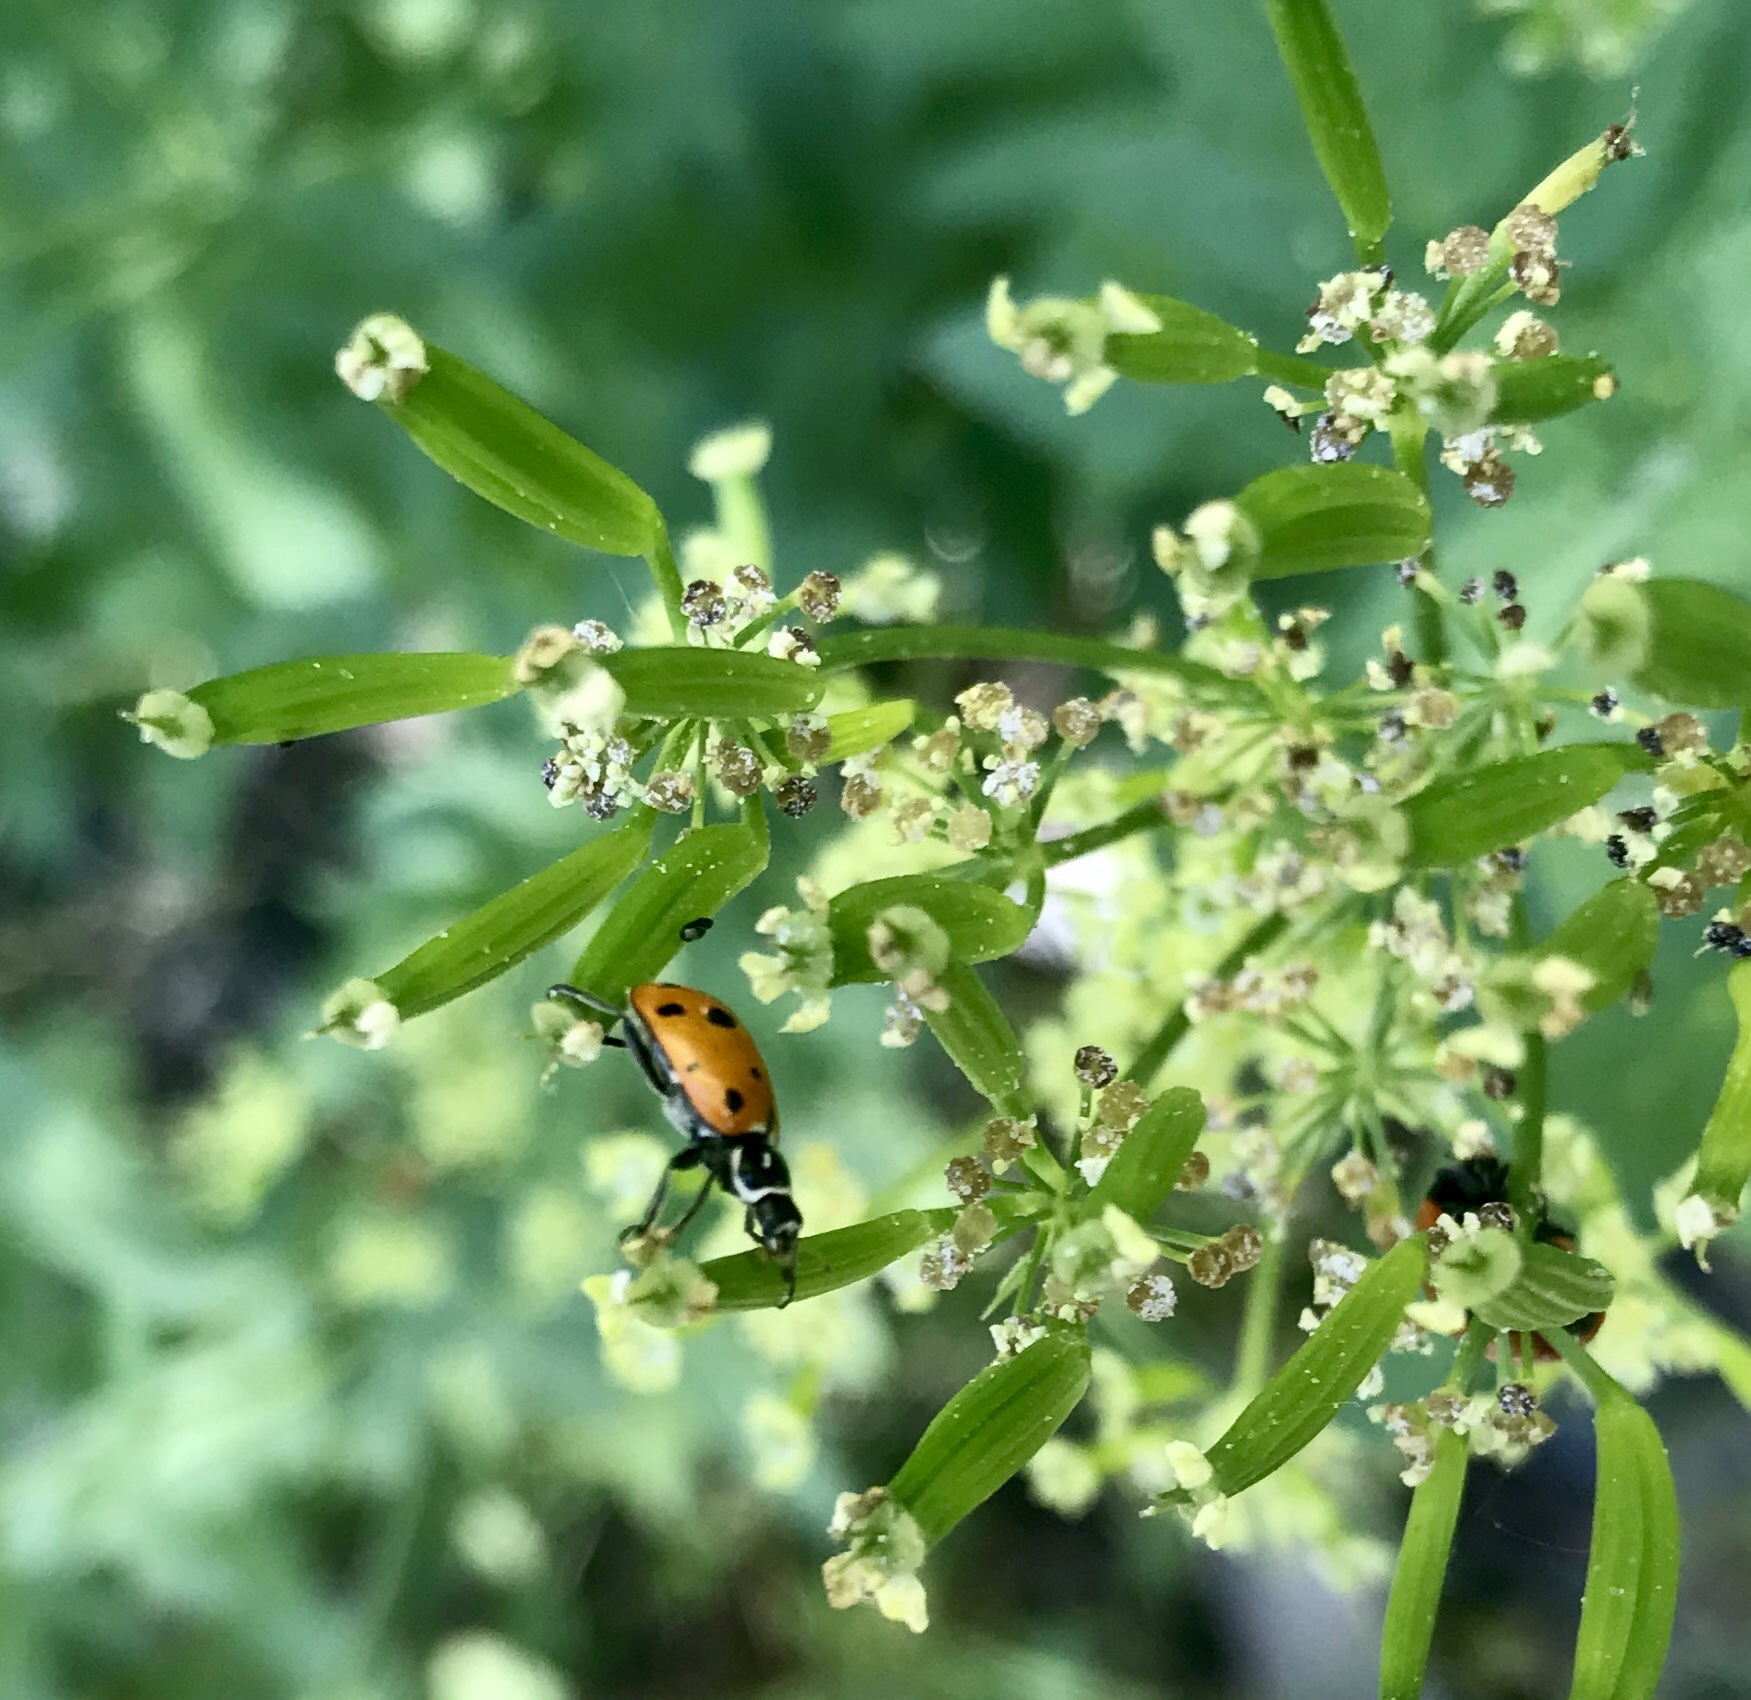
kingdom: Animalia
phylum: Arthropoda
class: Insecta
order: Coleoptera
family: Coccinellidae
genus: Hippodamia
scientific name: Hippodamia convergens
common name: Convergent lady beetle
